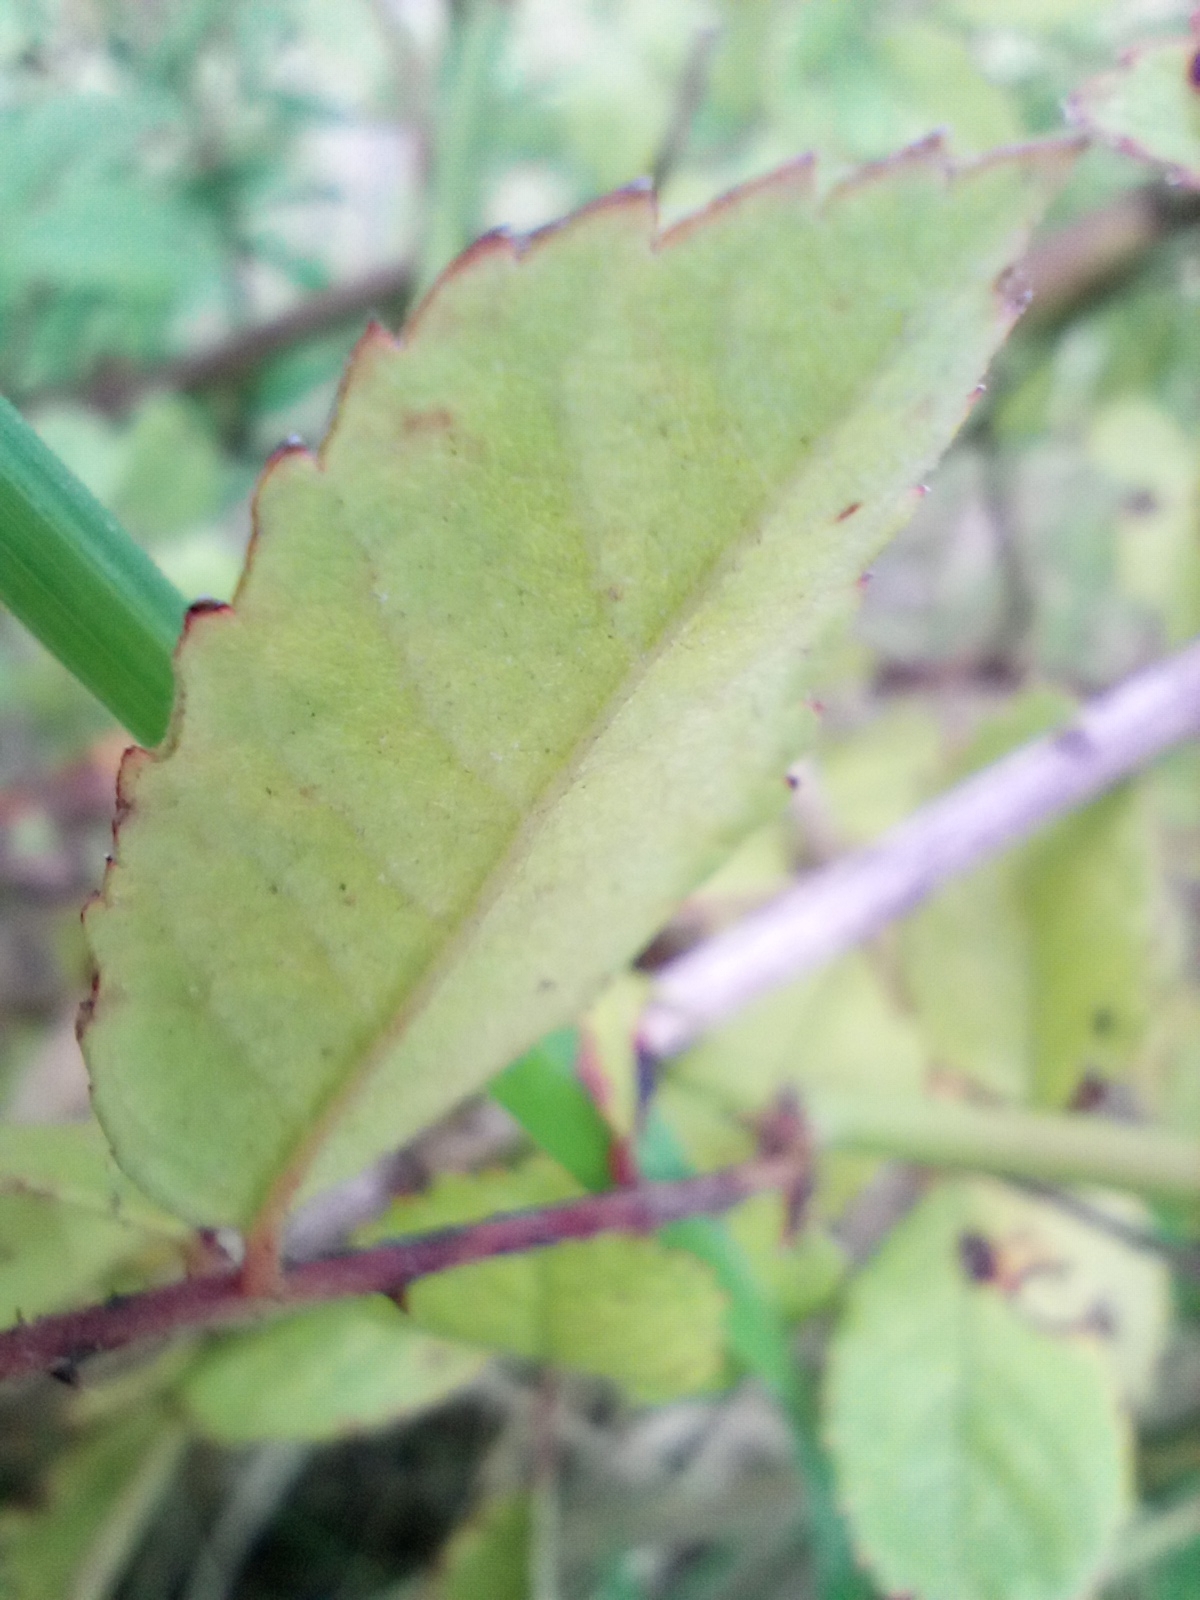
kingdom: Plantae
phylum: Tracheophyta
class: Magnoliopsida
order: Rosales
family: Rosaceae
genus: Rosa
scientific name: Rosa multiflora
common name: Multiflora rose
